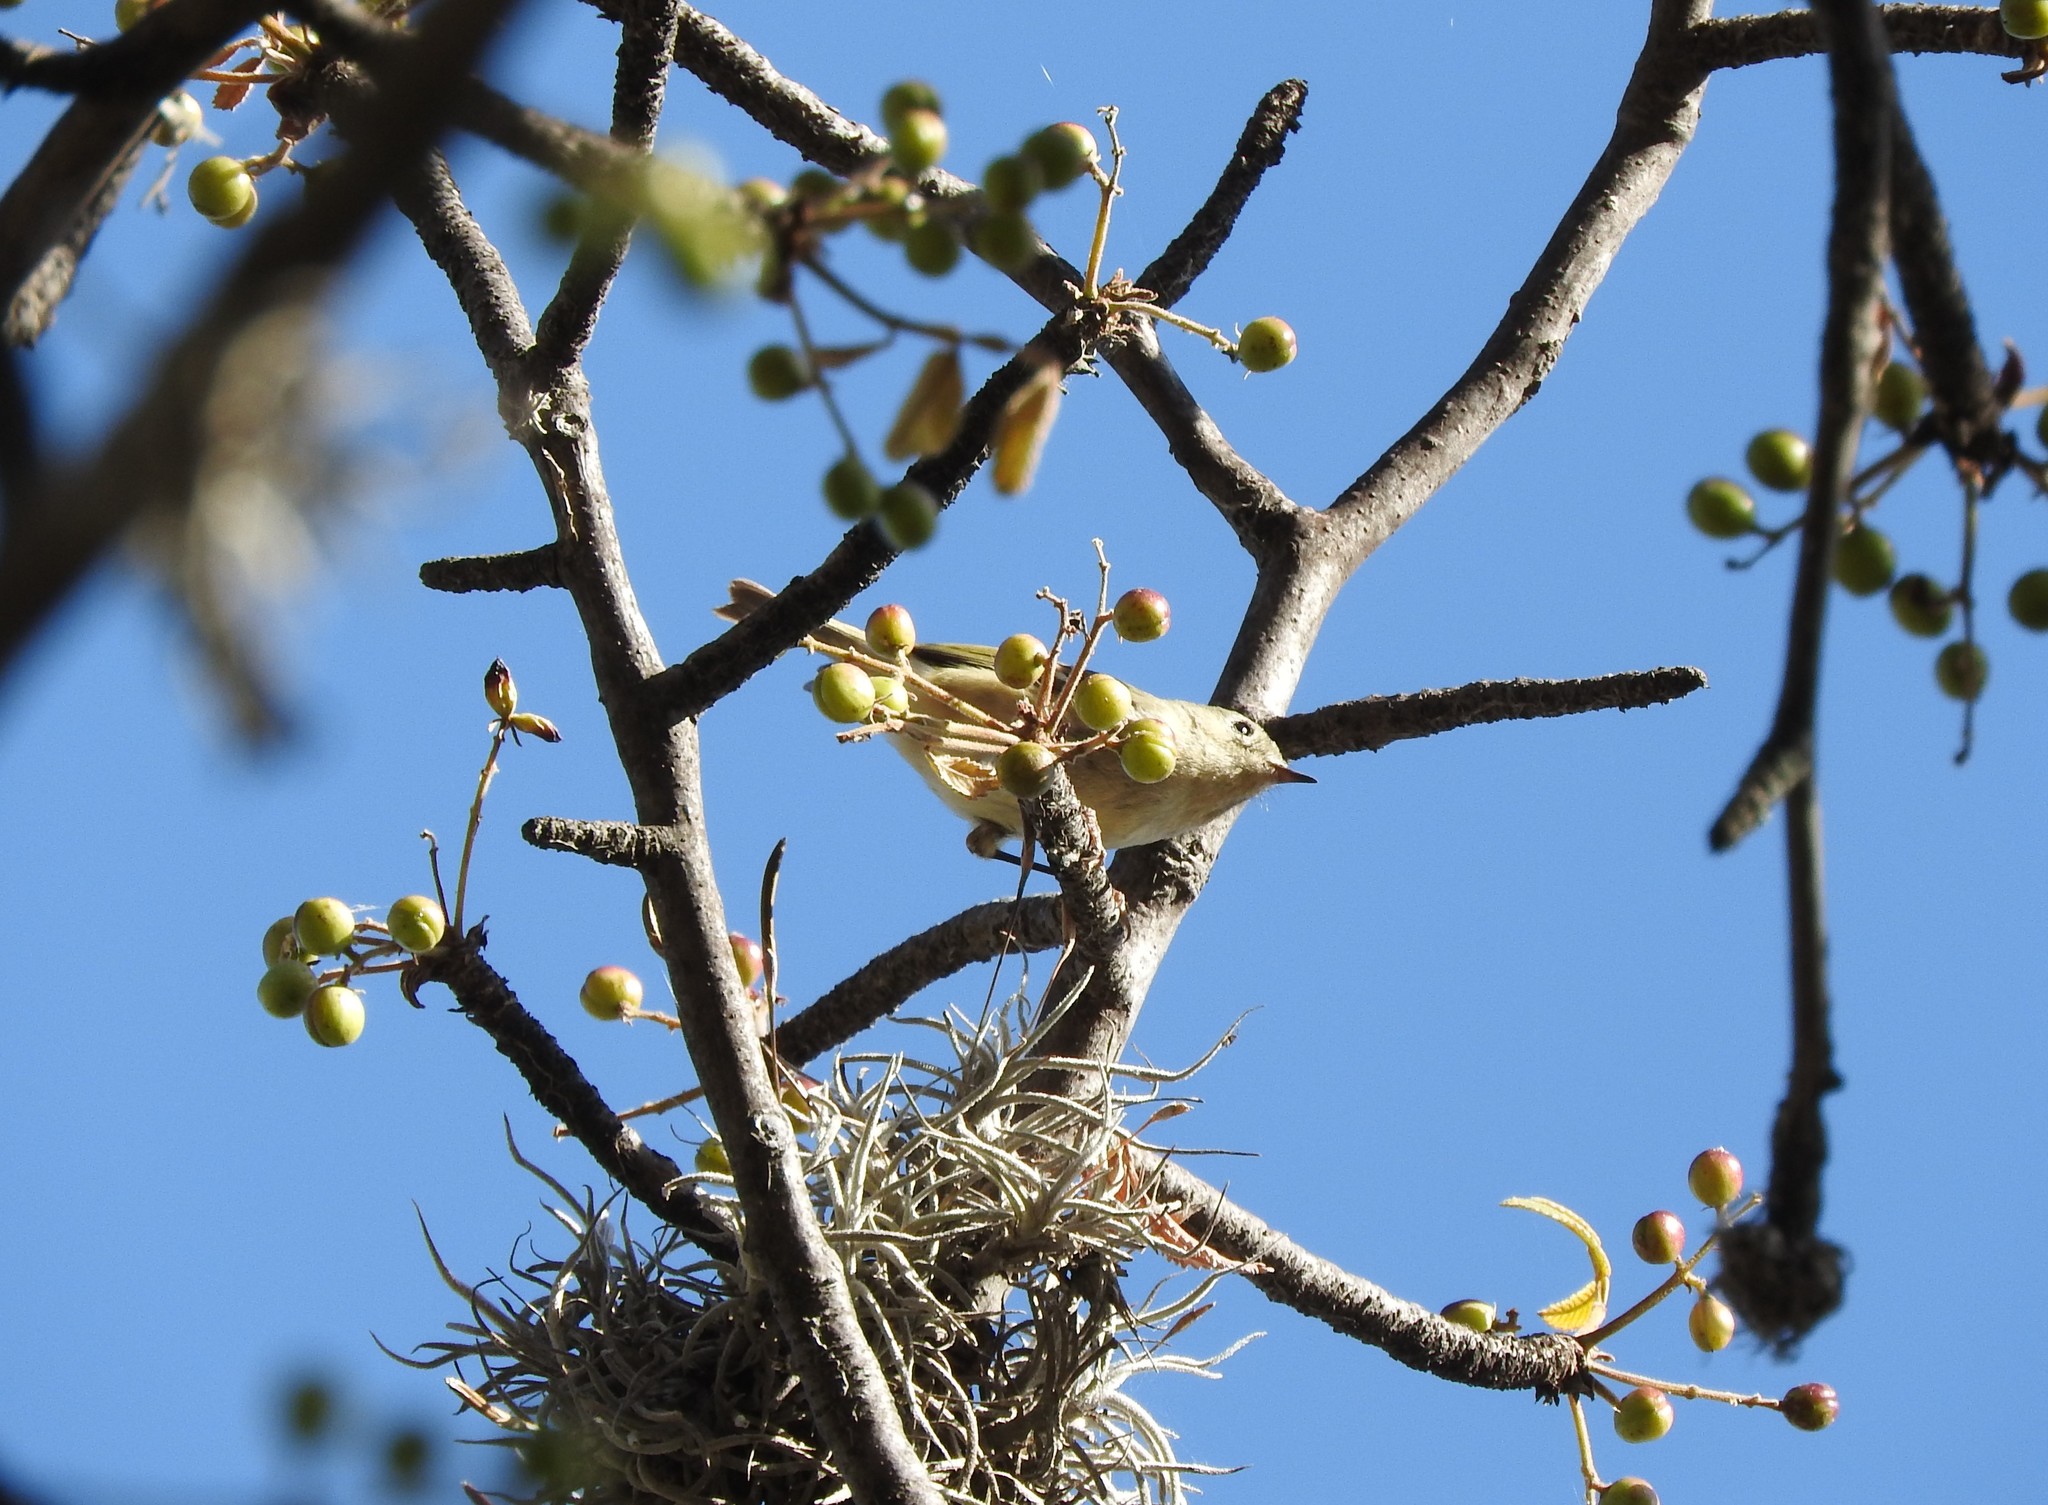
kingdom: Animalia
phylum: Chordata
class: Aves
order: Passeriformes
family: Regulidae
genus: Regulus
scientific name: Regulus calendula
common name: Ruby-crowned kinglet
